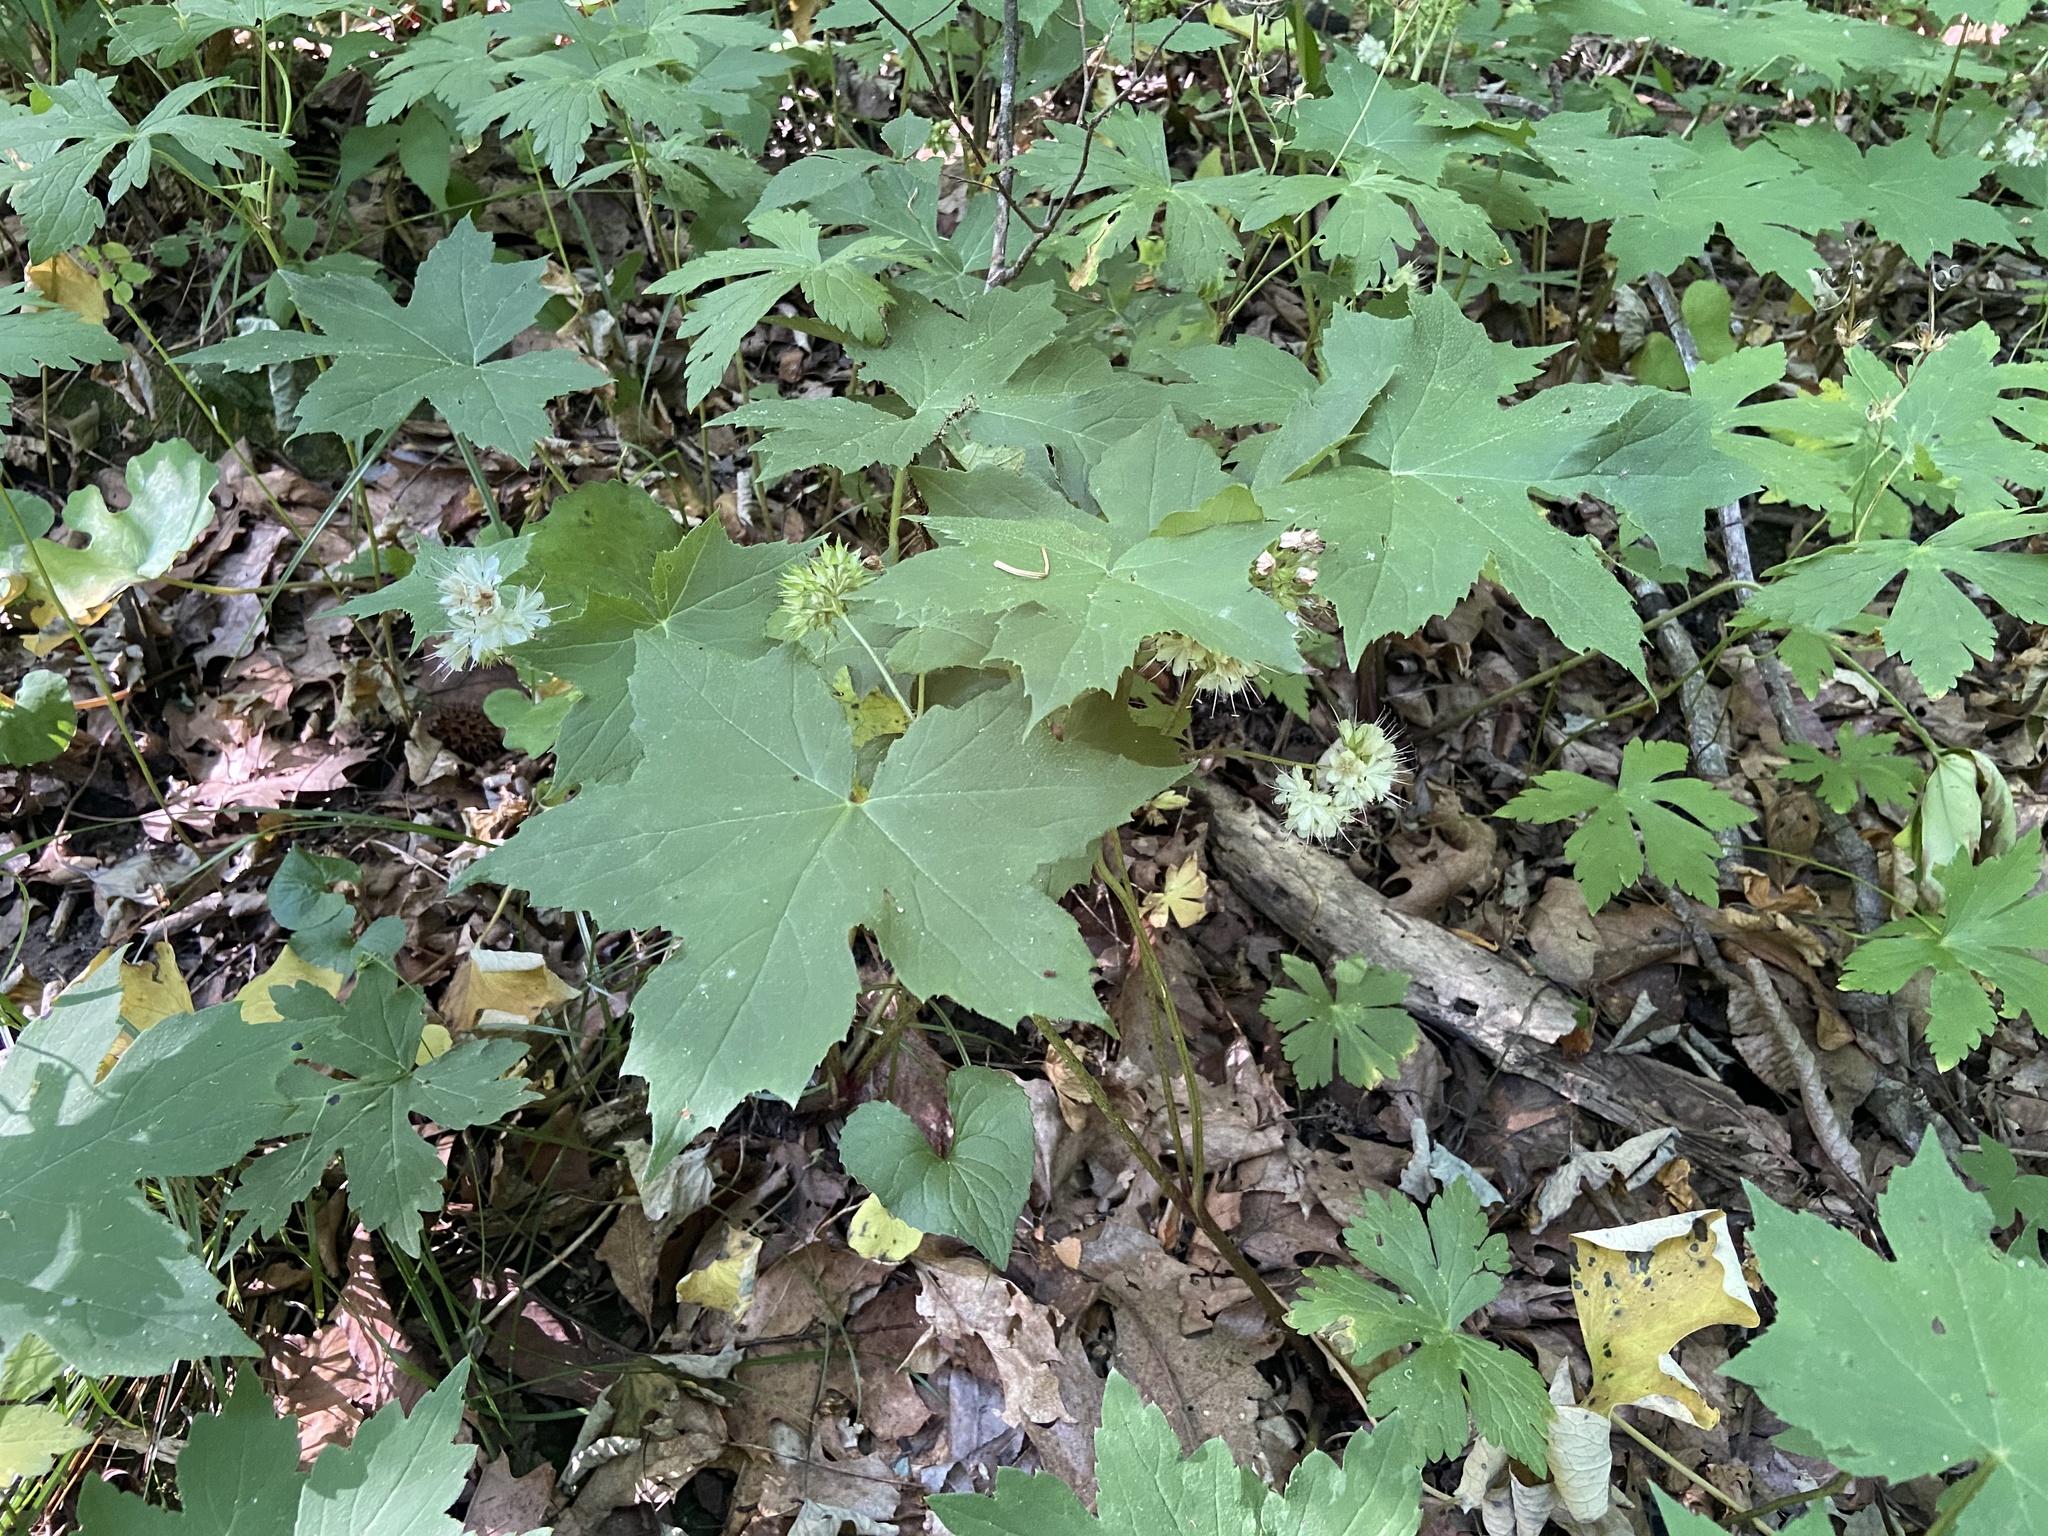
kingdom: Plantae
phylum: Tracheophyta
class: Magnoliopsida
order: Boraginales
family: Hydrophyllaceae
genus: Hydrophyllum
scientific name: Hydrophyllum canadense
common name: Canada waterleaf
